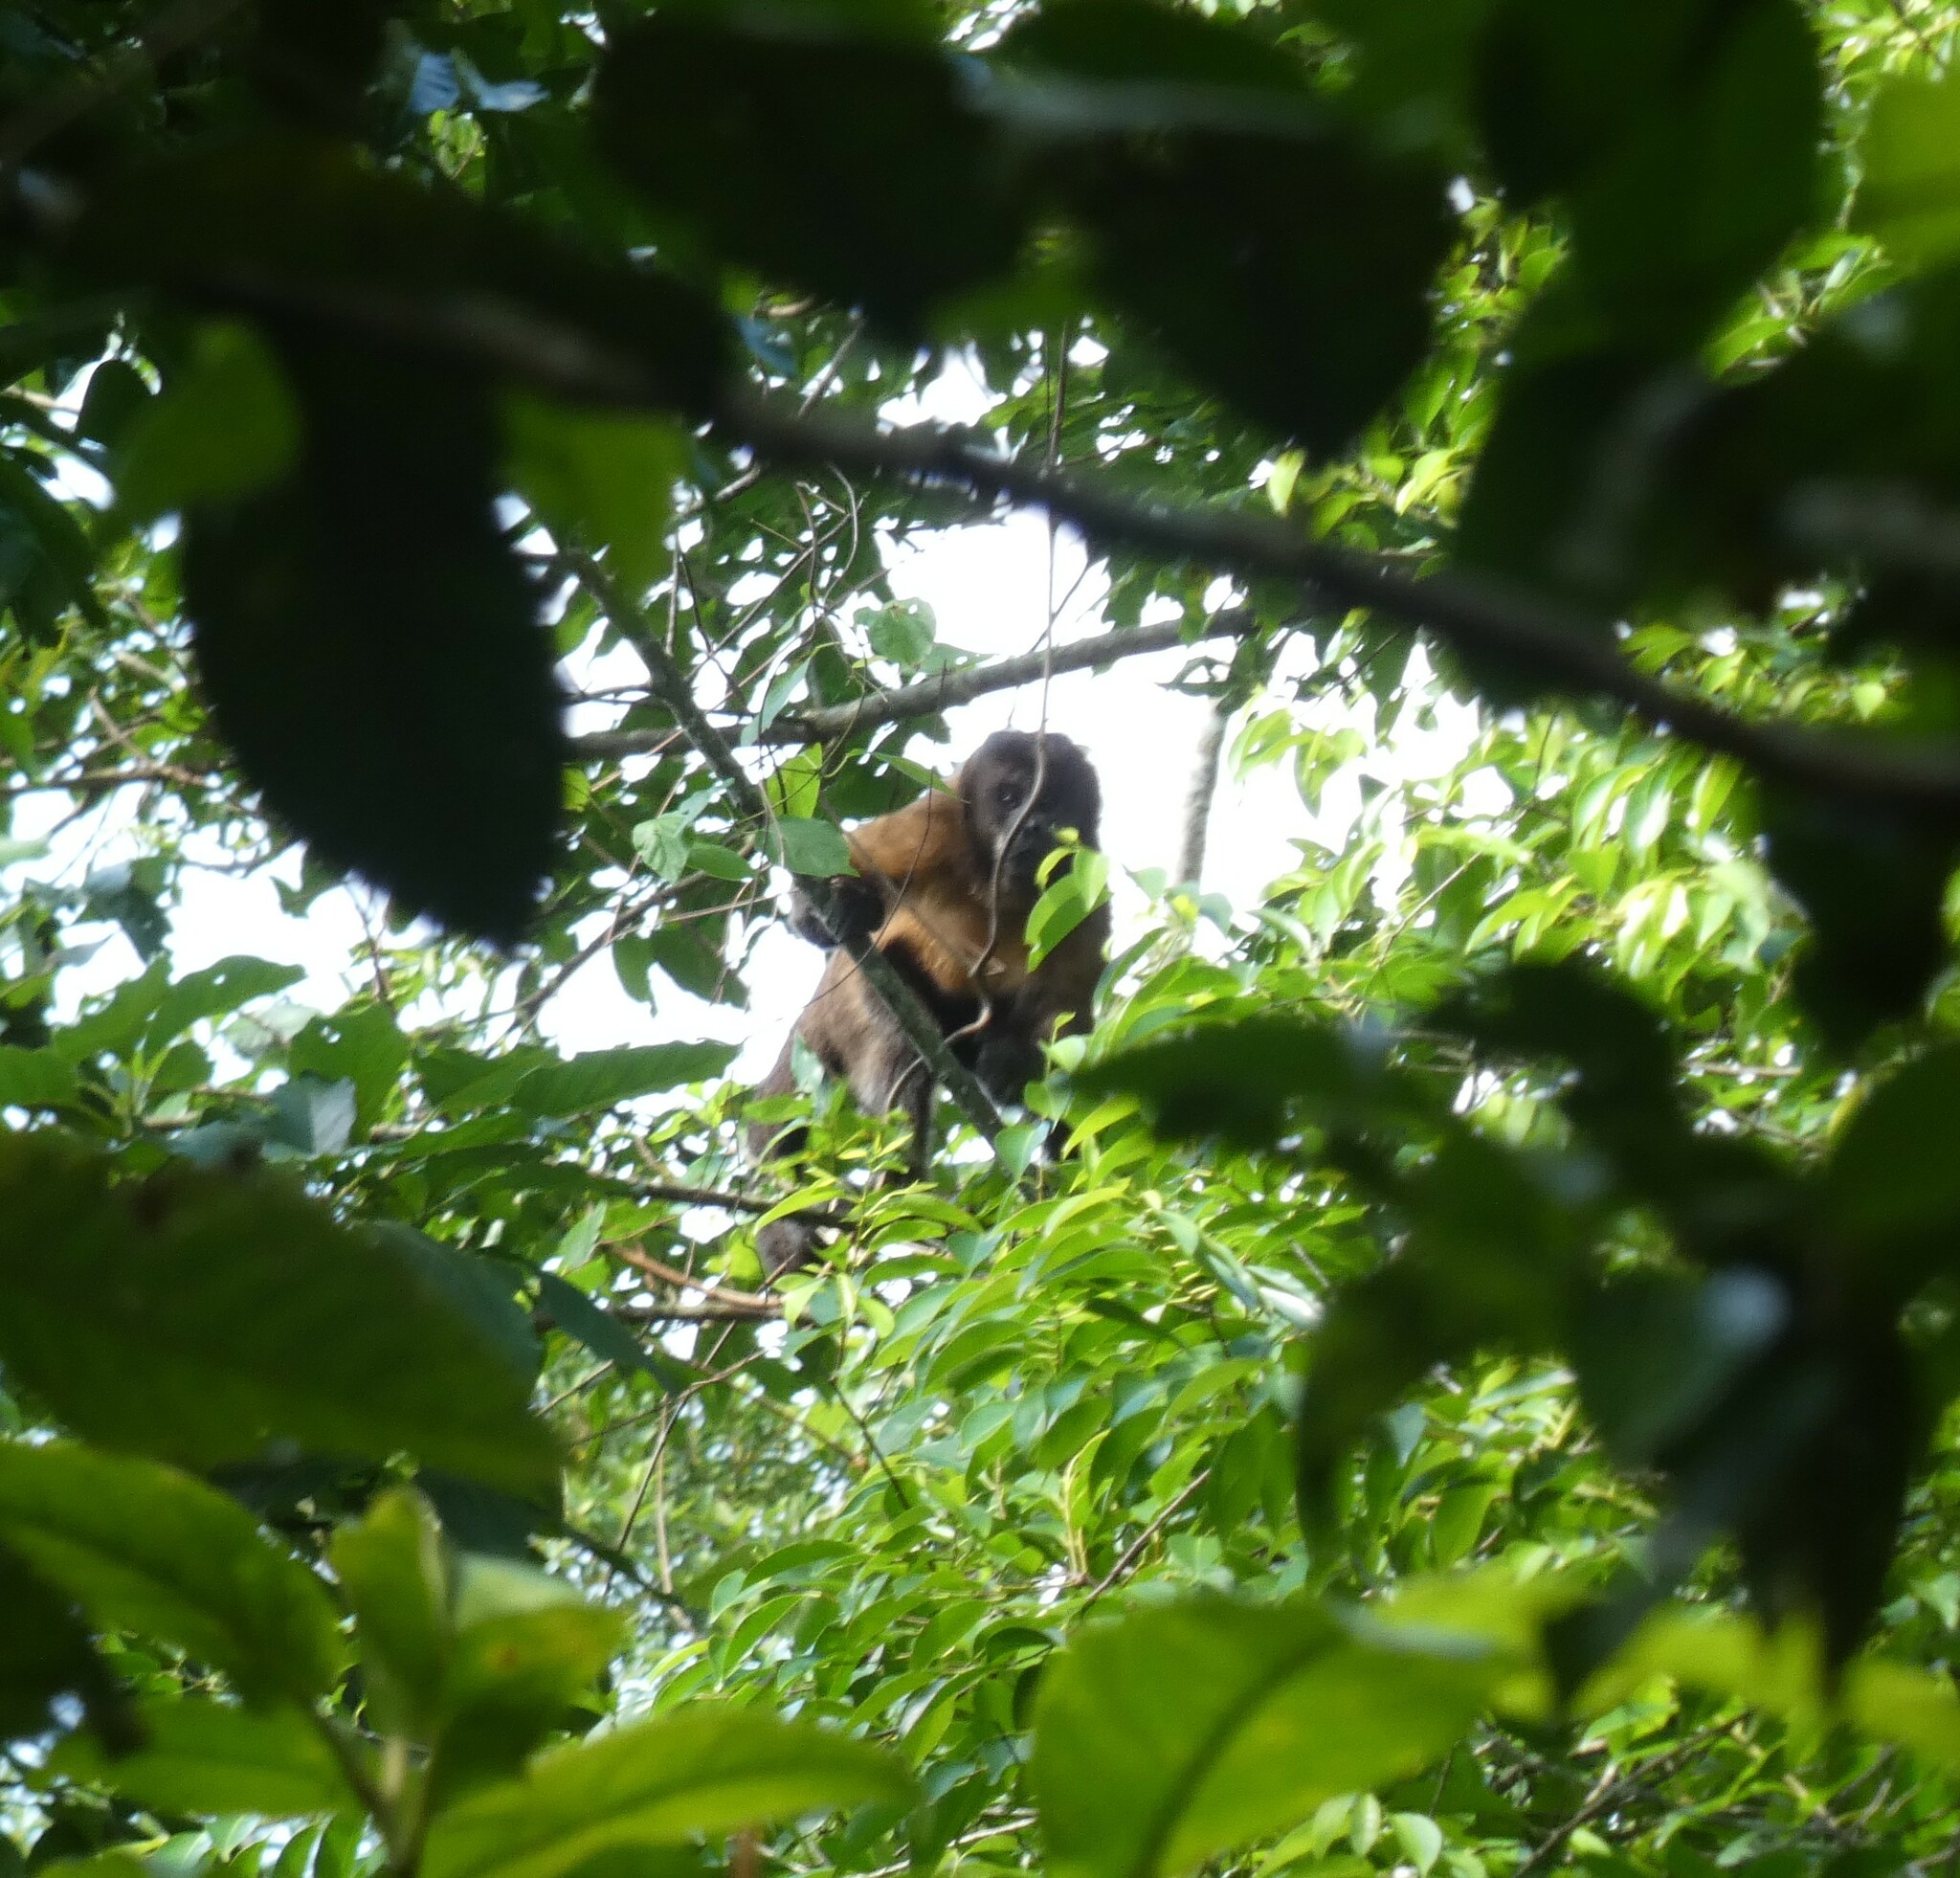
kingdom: Animalia
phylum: Chordata
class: Mammalia
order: Primates
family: Cebidae
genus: Sapajus
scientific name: Sapajus nigritus
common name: Black capuchin
